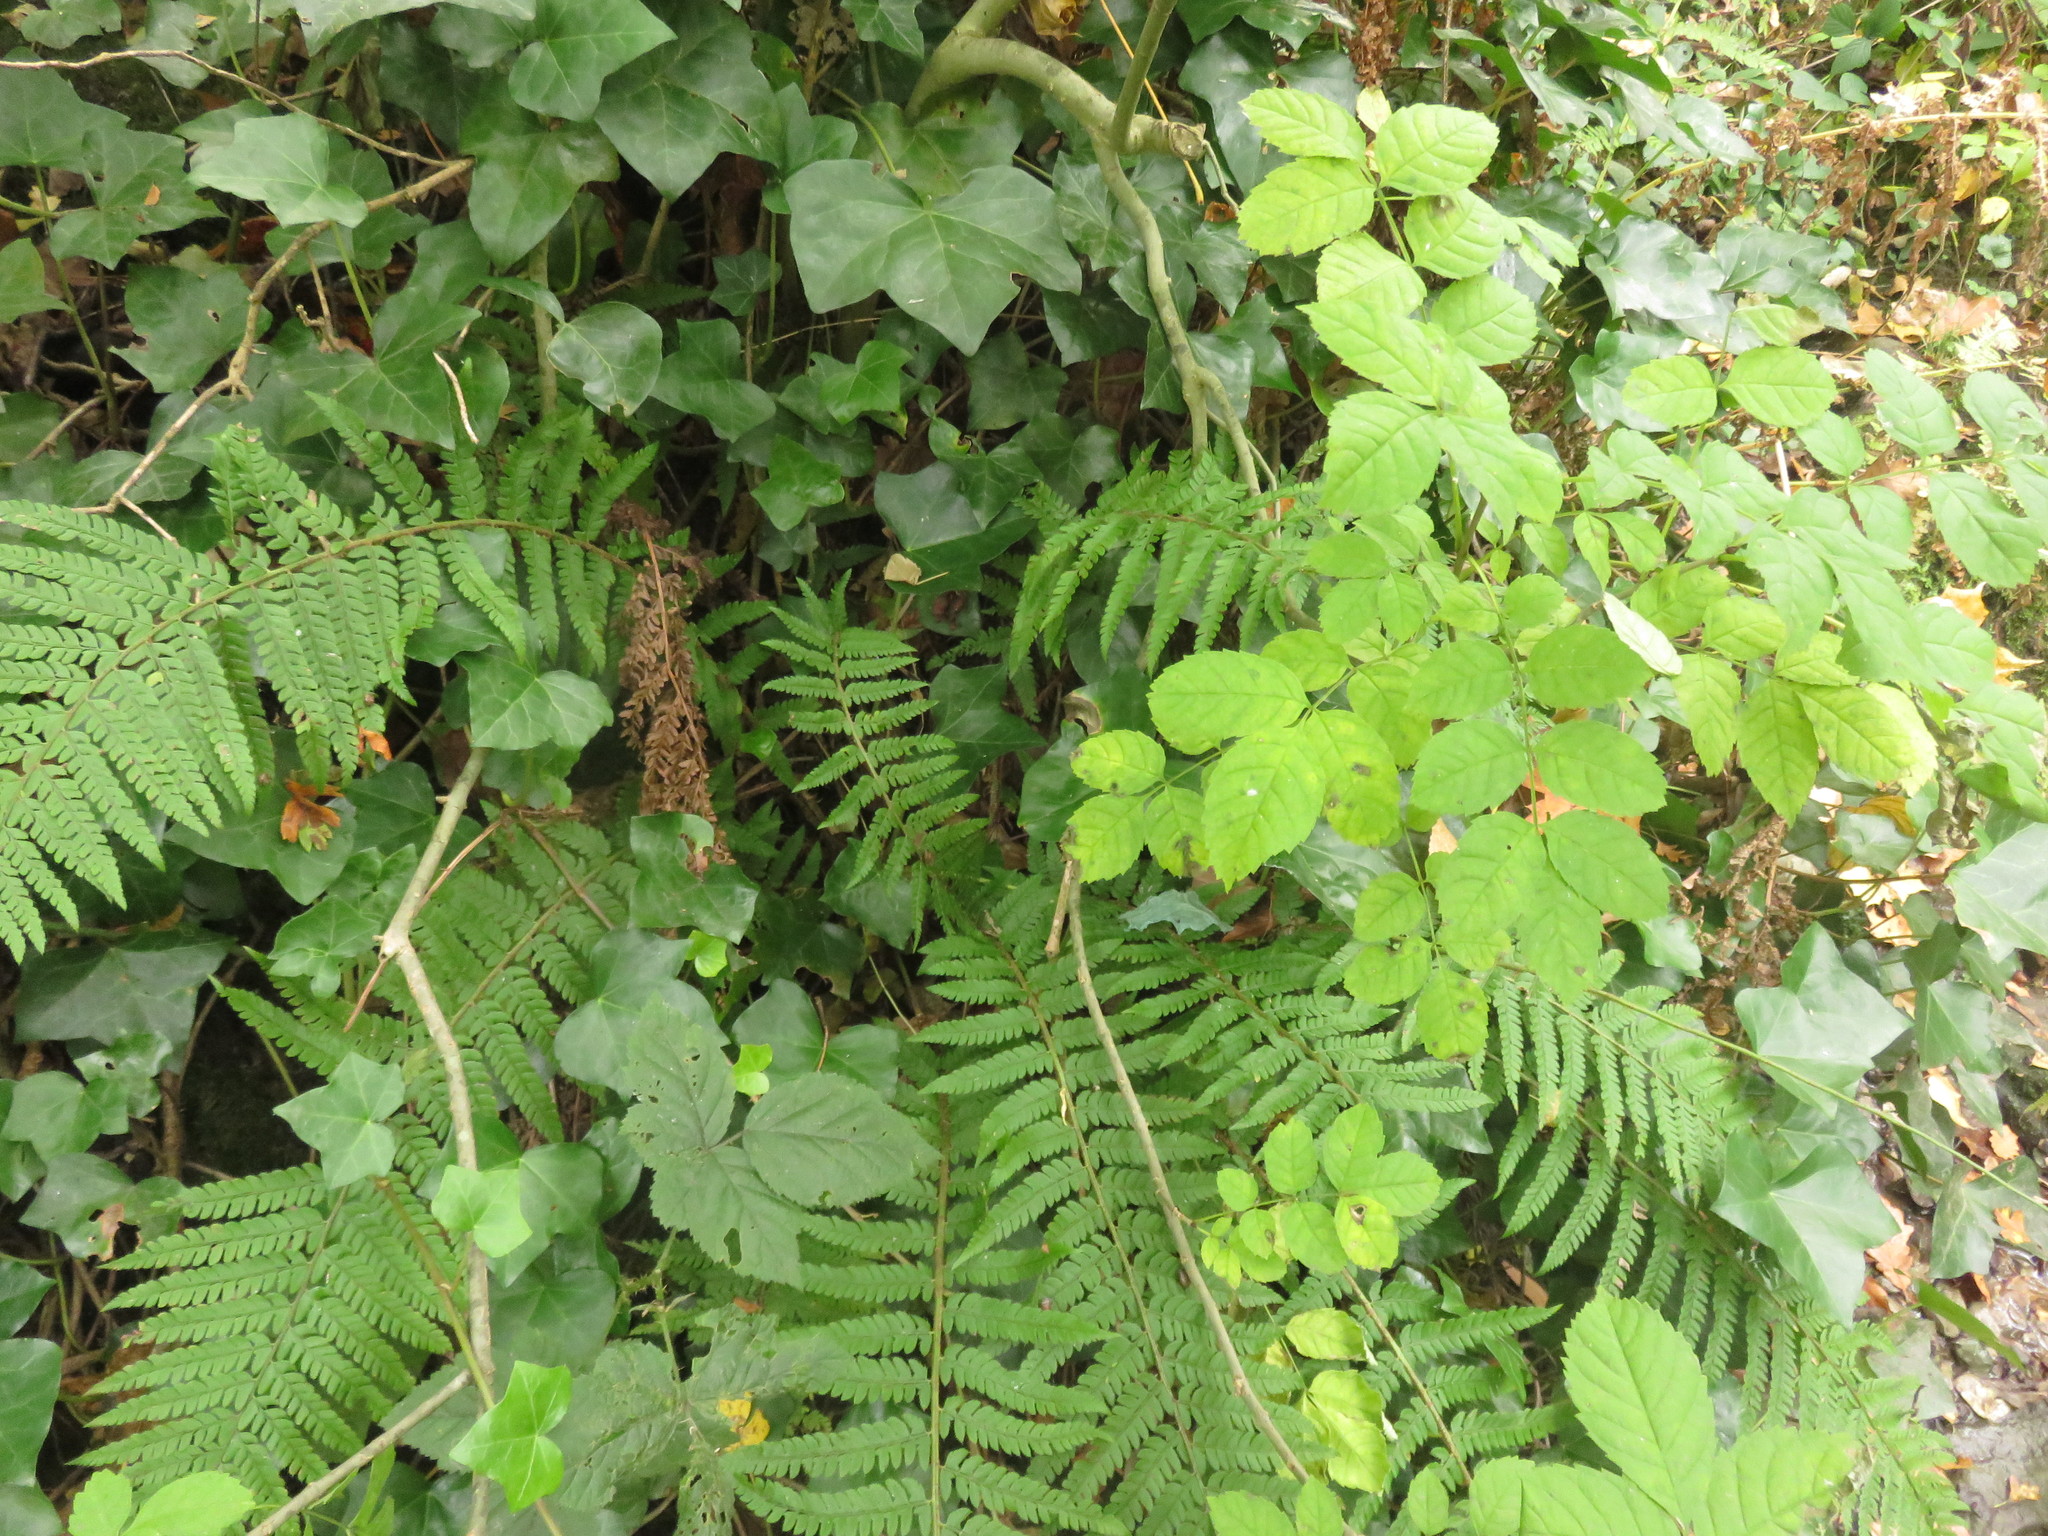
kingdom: Plantae
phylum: Tracheophyta
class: Polypodiopsida
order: Polypodiales
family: Dryopteridaceae
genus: Polystichum
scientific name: Polystichum setiferum
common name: Soft shield-fern
